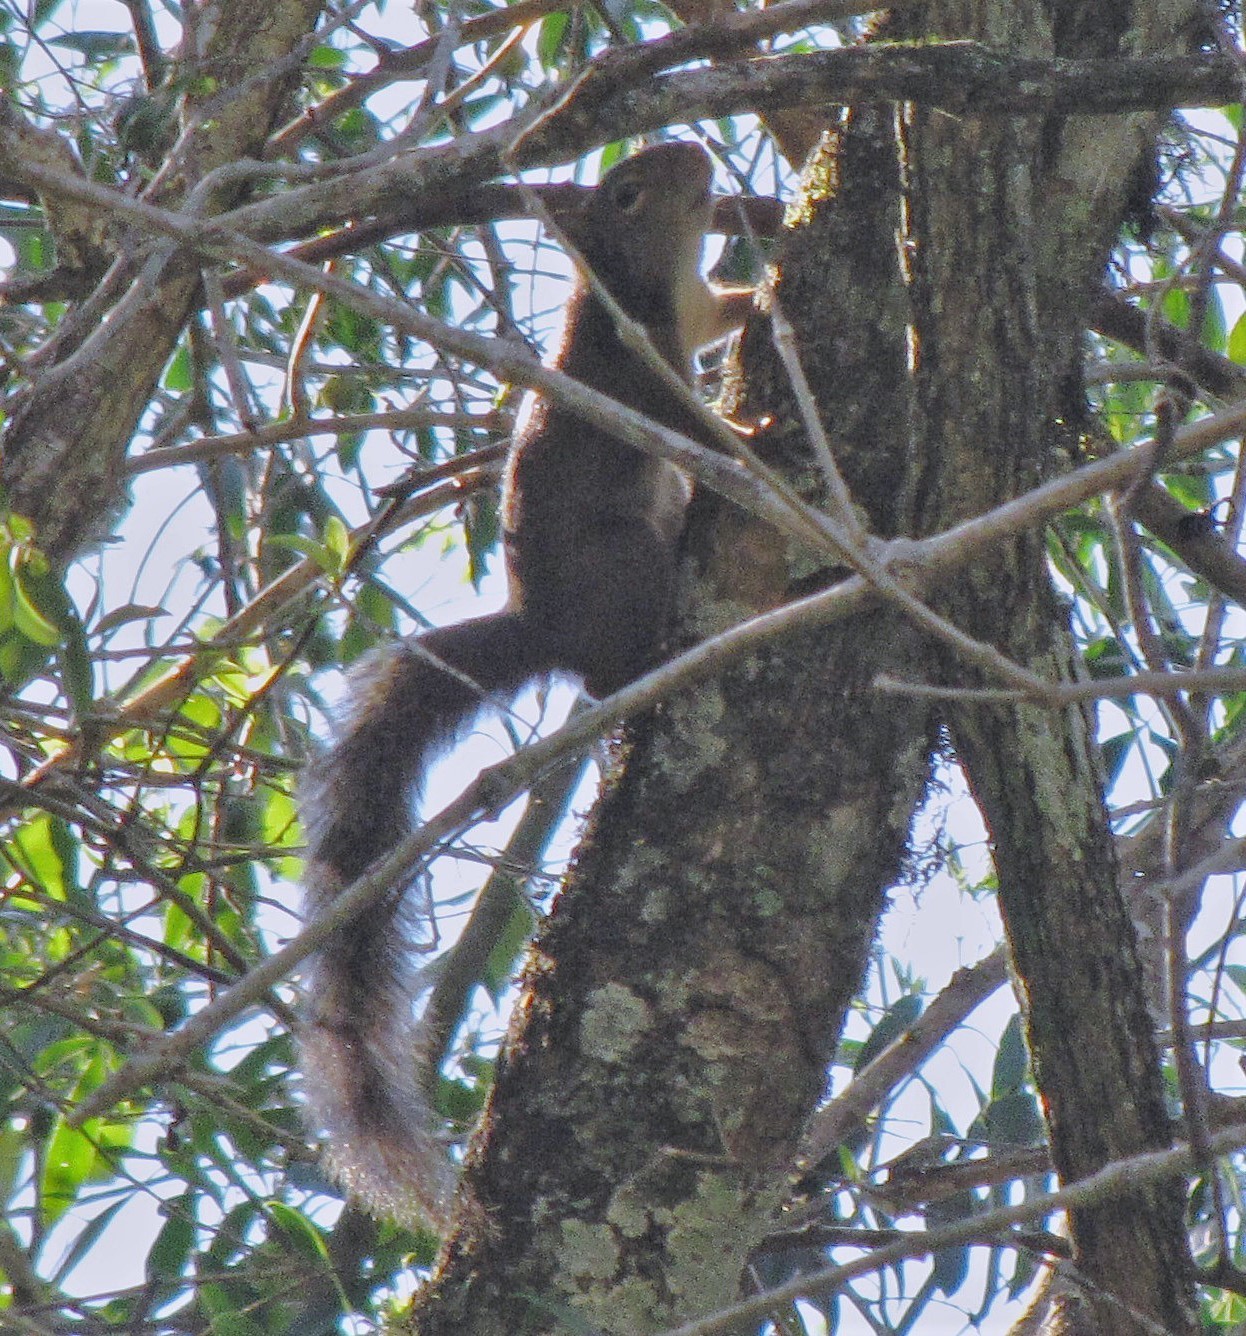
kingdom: Animalia
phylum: Chordata
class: Mammalia
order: Rodentia
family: Sciuridae
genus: Sciurus
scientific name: Sciurus aestuans
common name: Guianan squirrel
